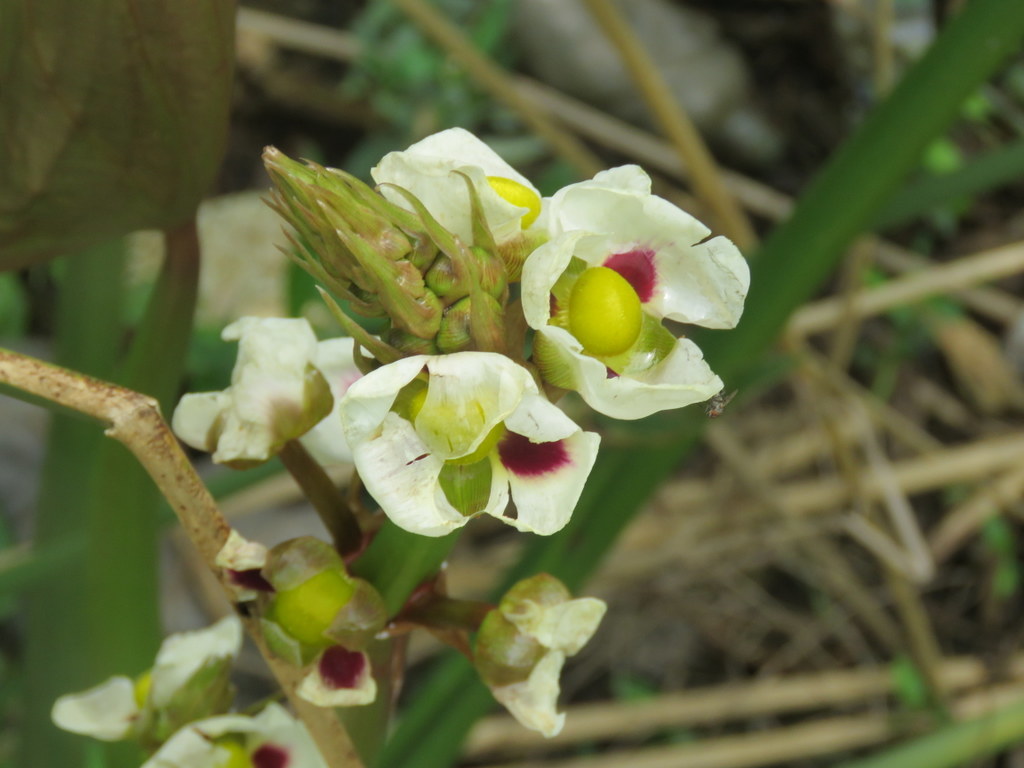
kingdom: Plantae
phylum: Tracheophyta
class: Liliopsida
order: Alismatales
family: Alismataceae
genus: Sagittaria
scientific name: Sagittaria montevidensis
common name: Giant arrowhead
